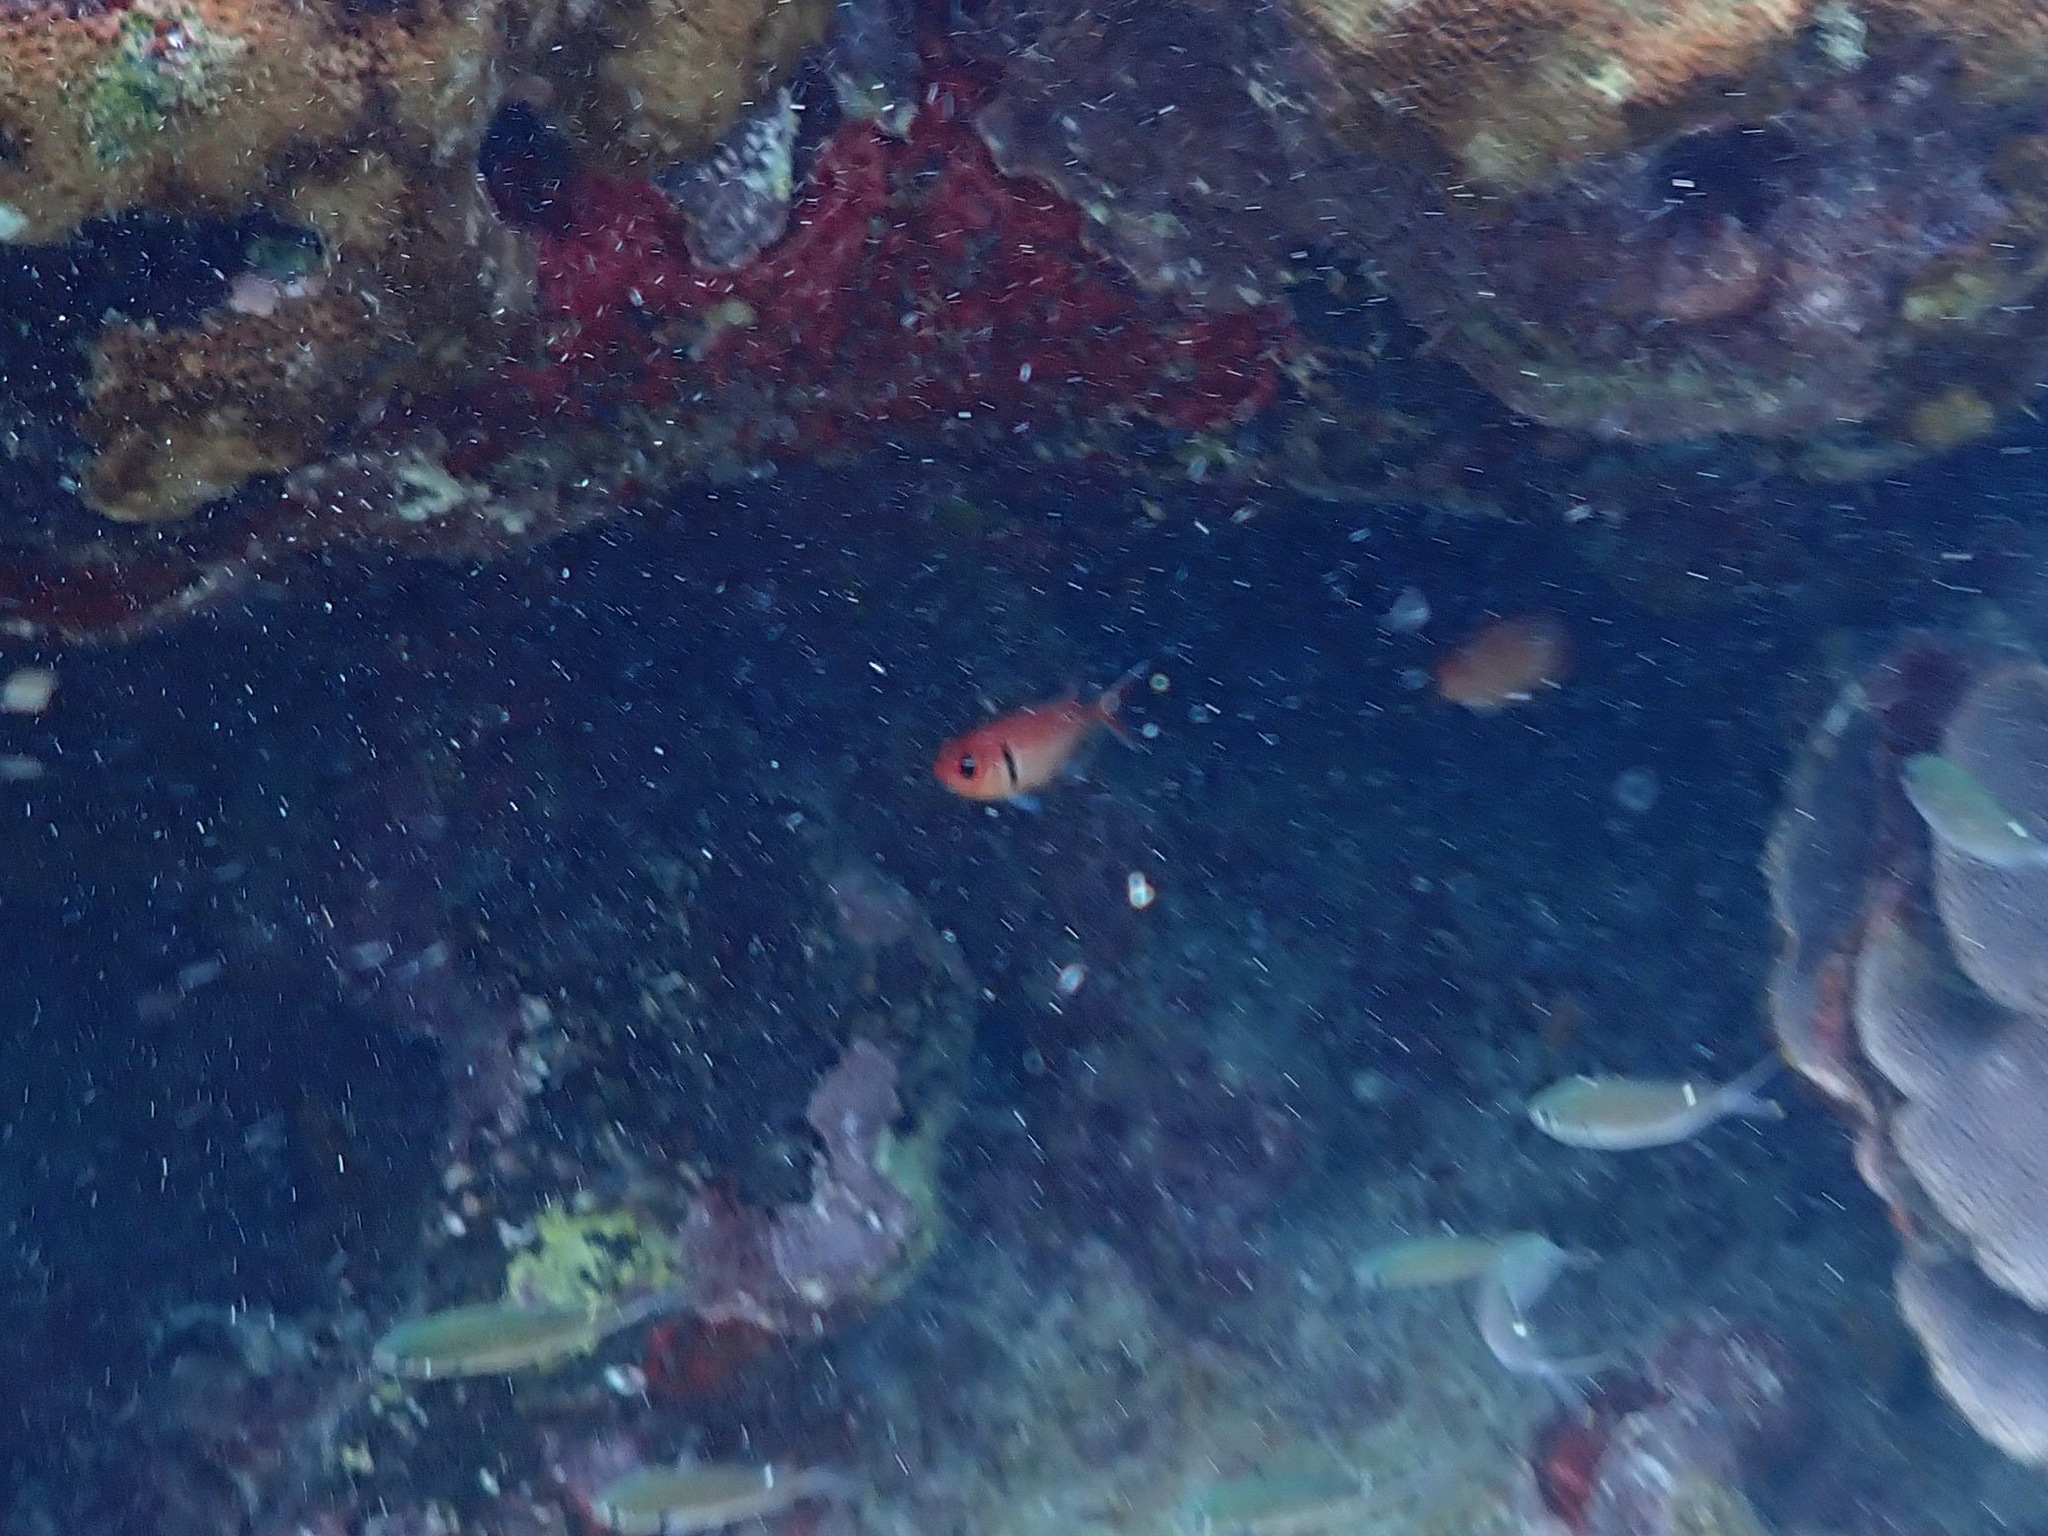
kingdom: Animalia
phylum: Chordata
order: Beryciformes
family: Holocentridae
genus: Myripristis
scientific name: Myripristis jacobus
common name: Blackbar soldierfish
